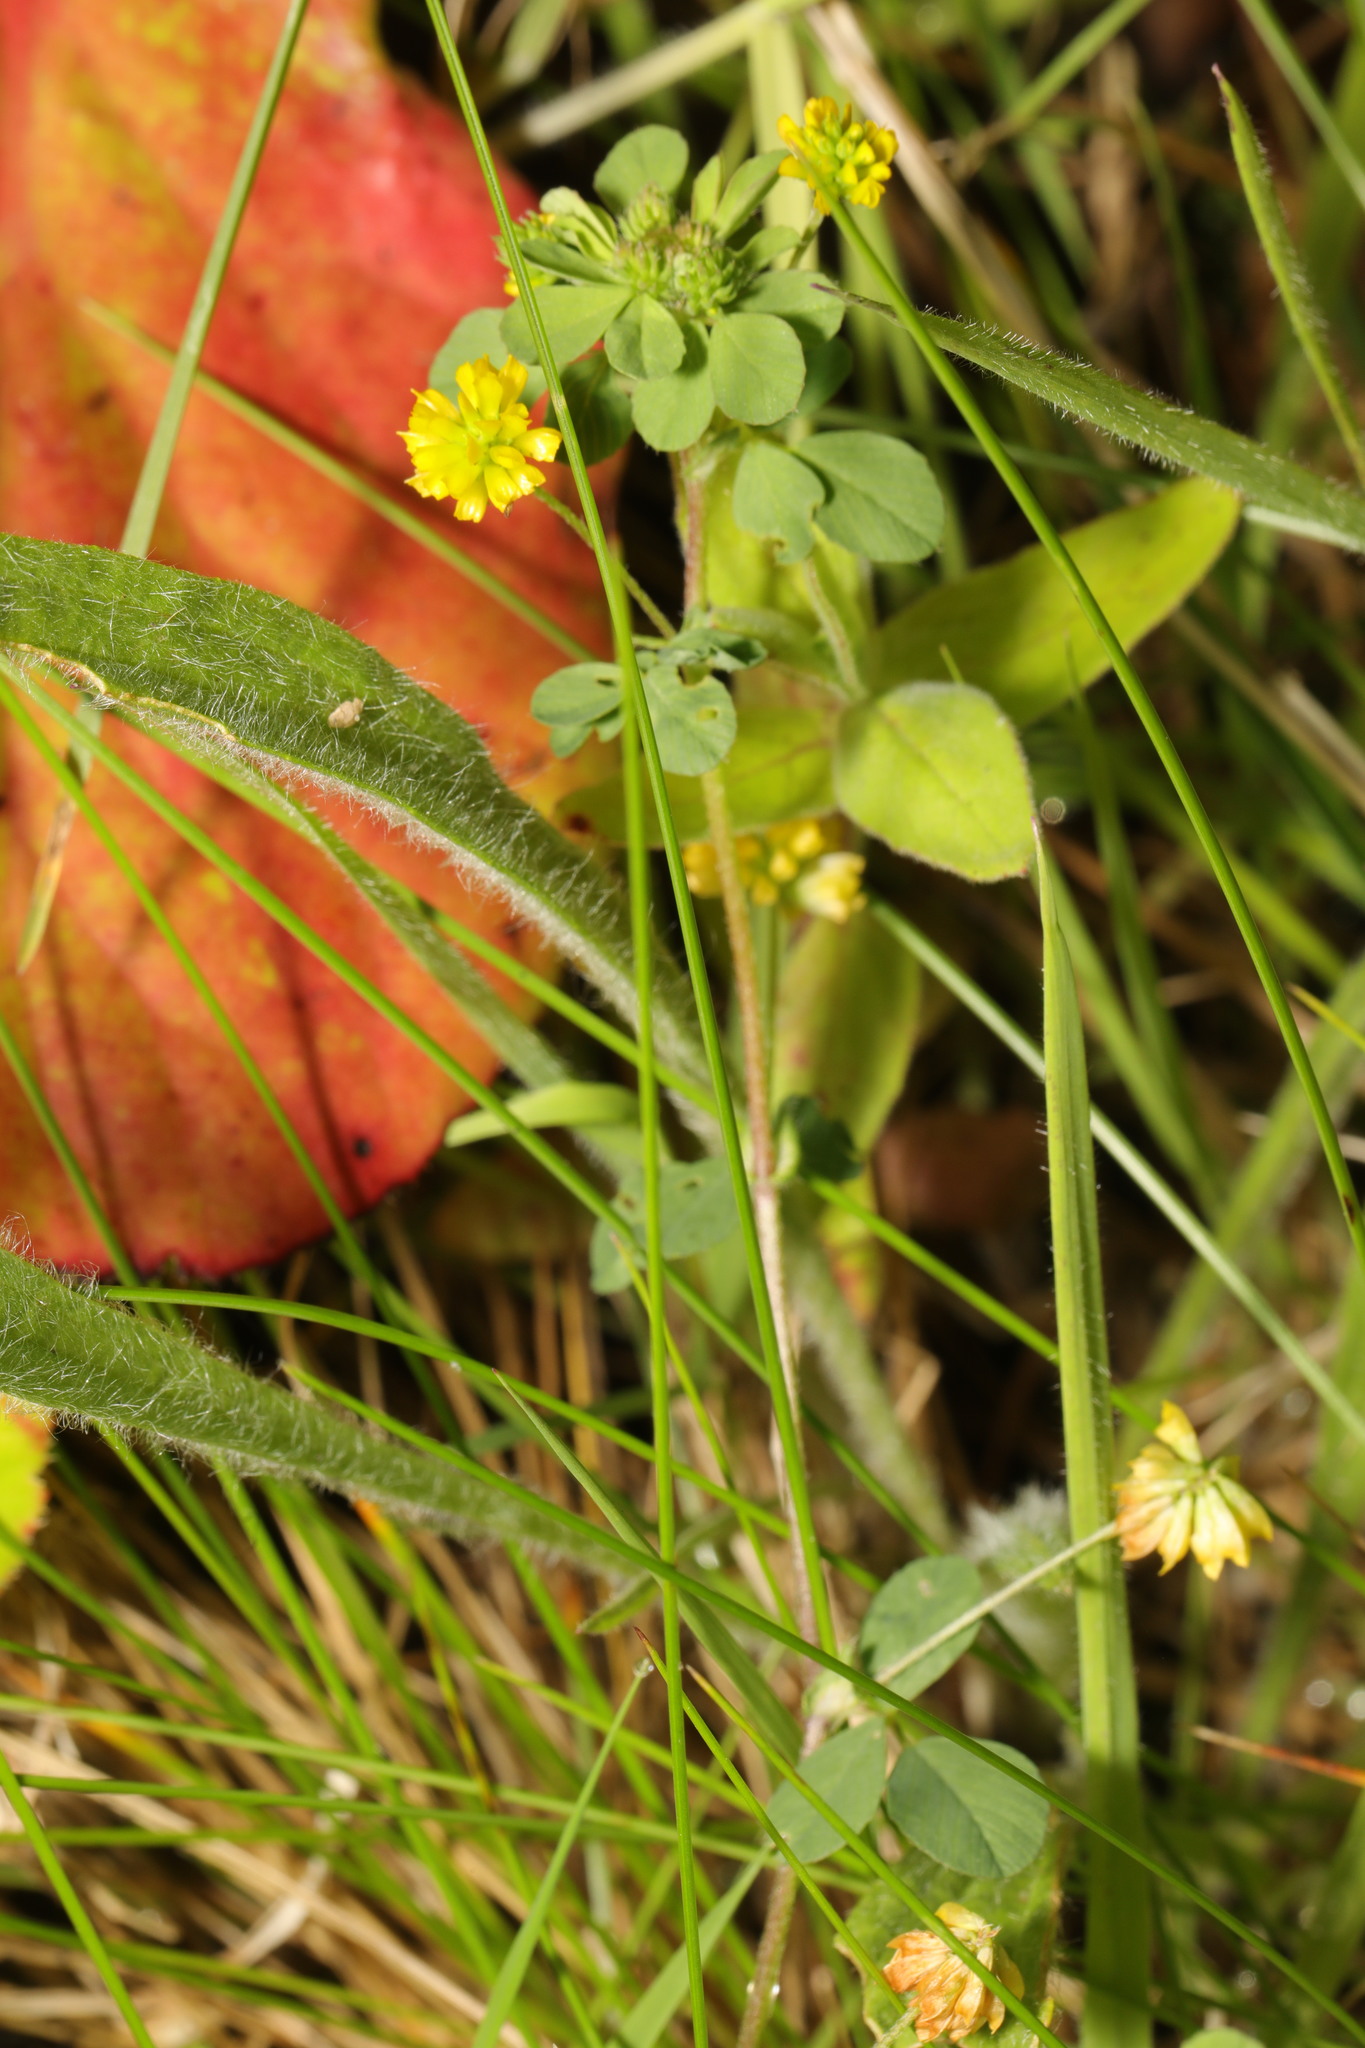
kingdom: Plantae
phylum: Tracheophyta
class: Magnoliopsida
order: Fabales
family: Fabaceae
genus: Trifolium
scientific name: Trifolium dubium
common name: Suckling clover
